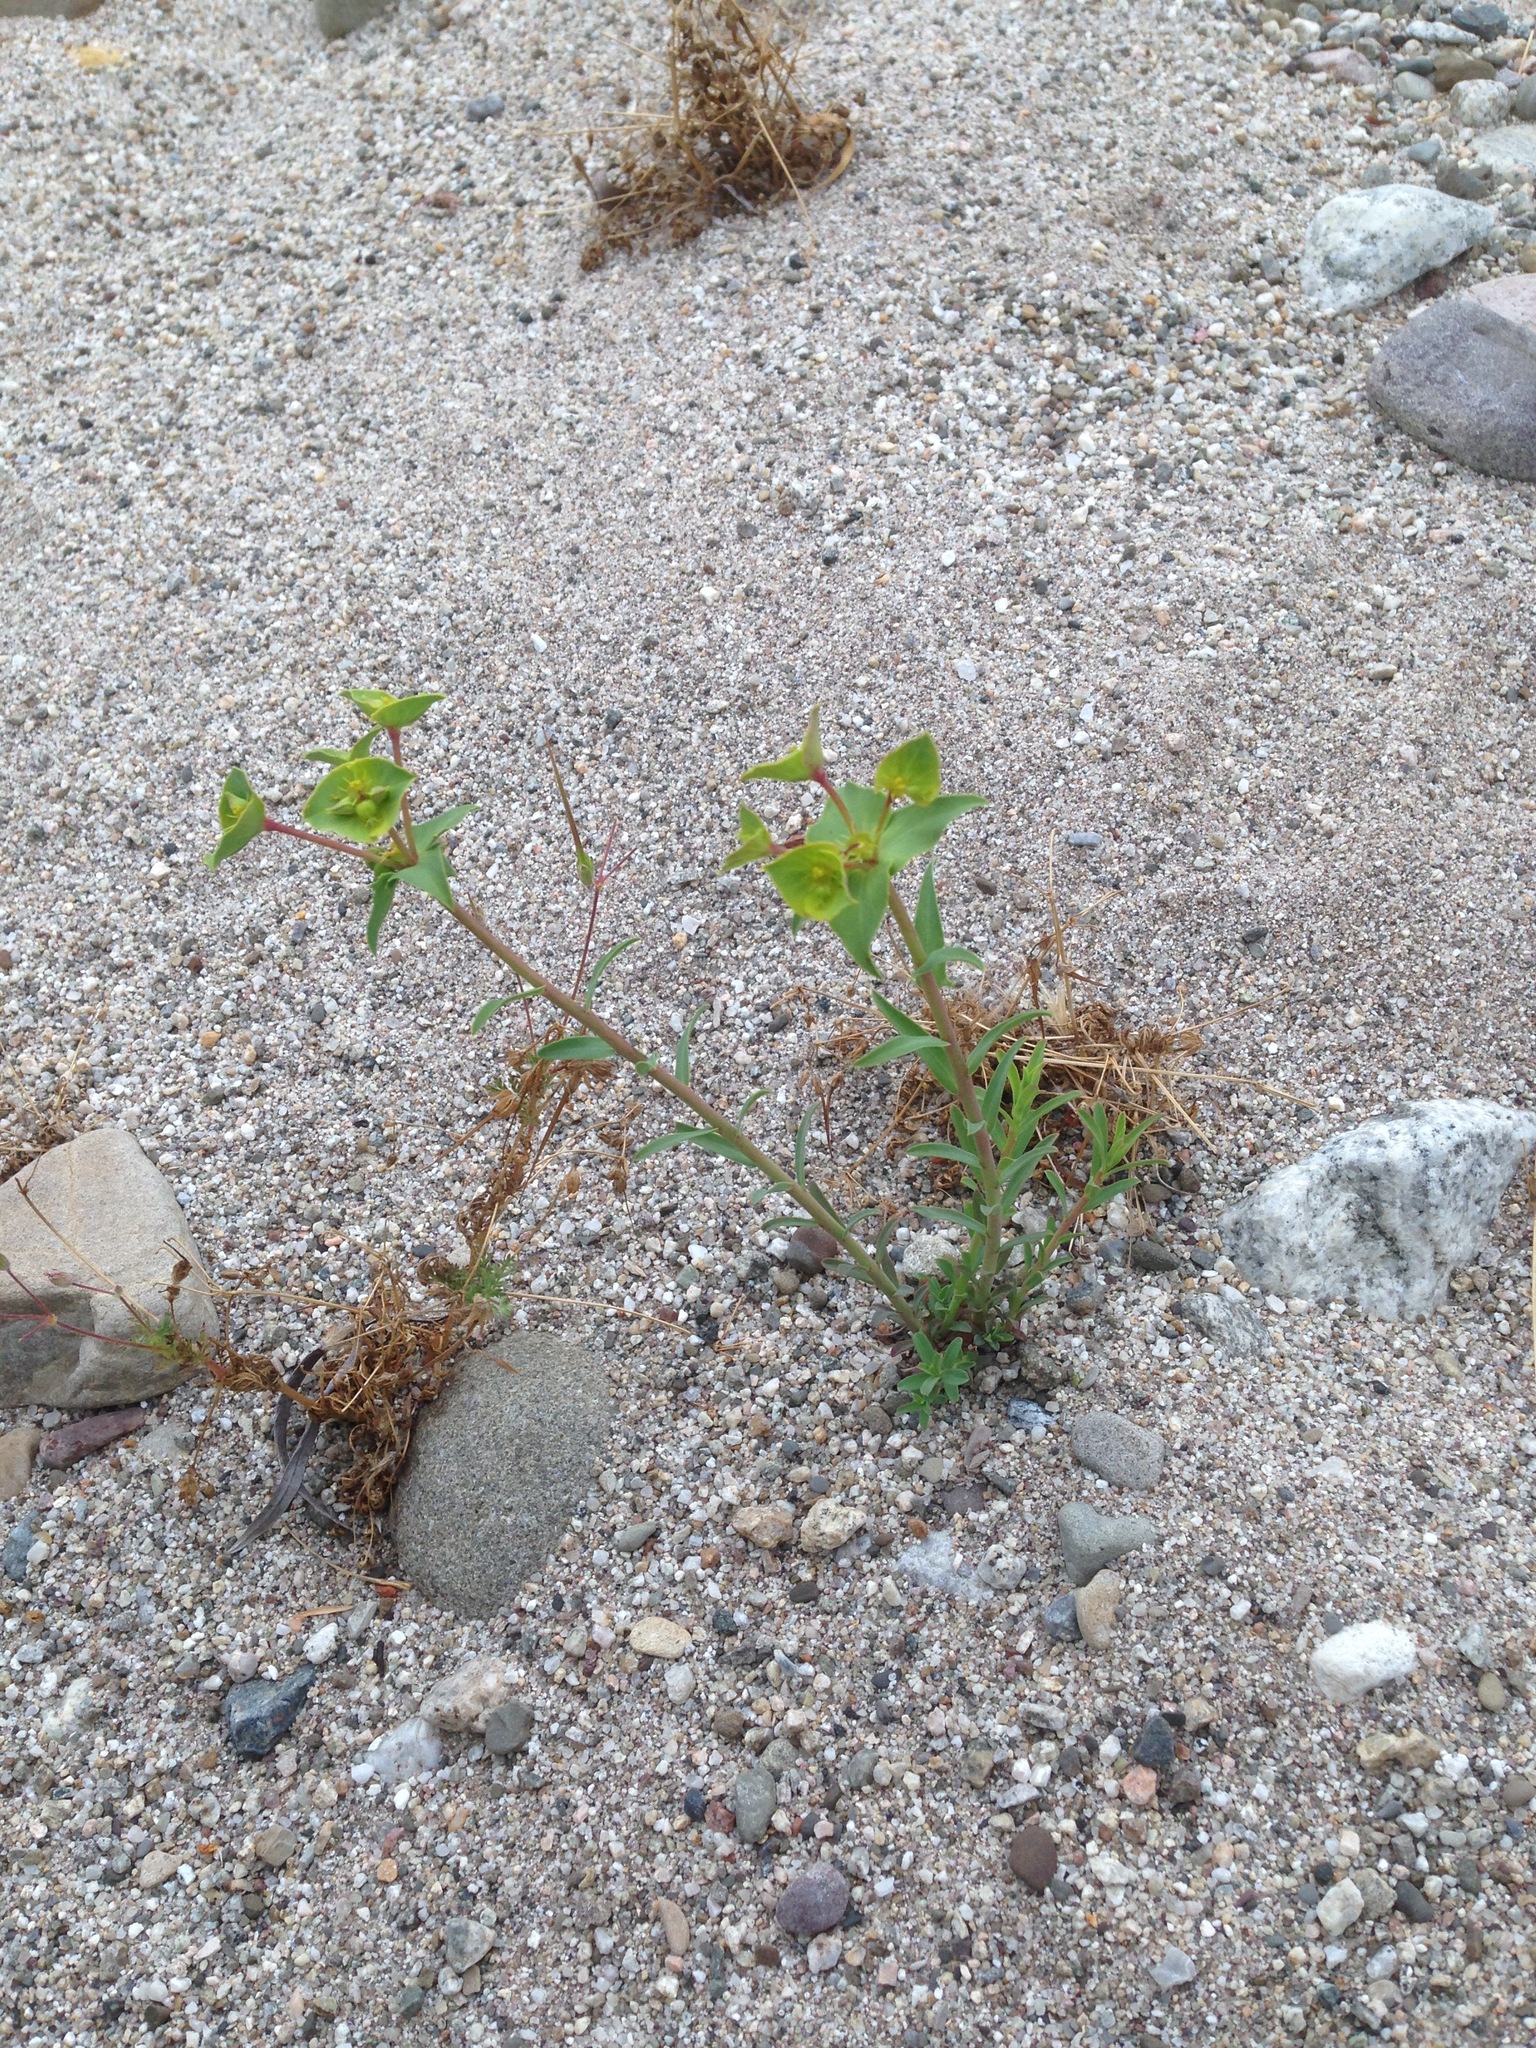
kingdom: Plantae
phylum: Tracheophyta
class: Magnoliopsida
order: Malpighiales
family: Euphorbiaceae
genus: Euphorbia
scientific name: Euphorbia terracina
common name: Geraldton carnation weed
